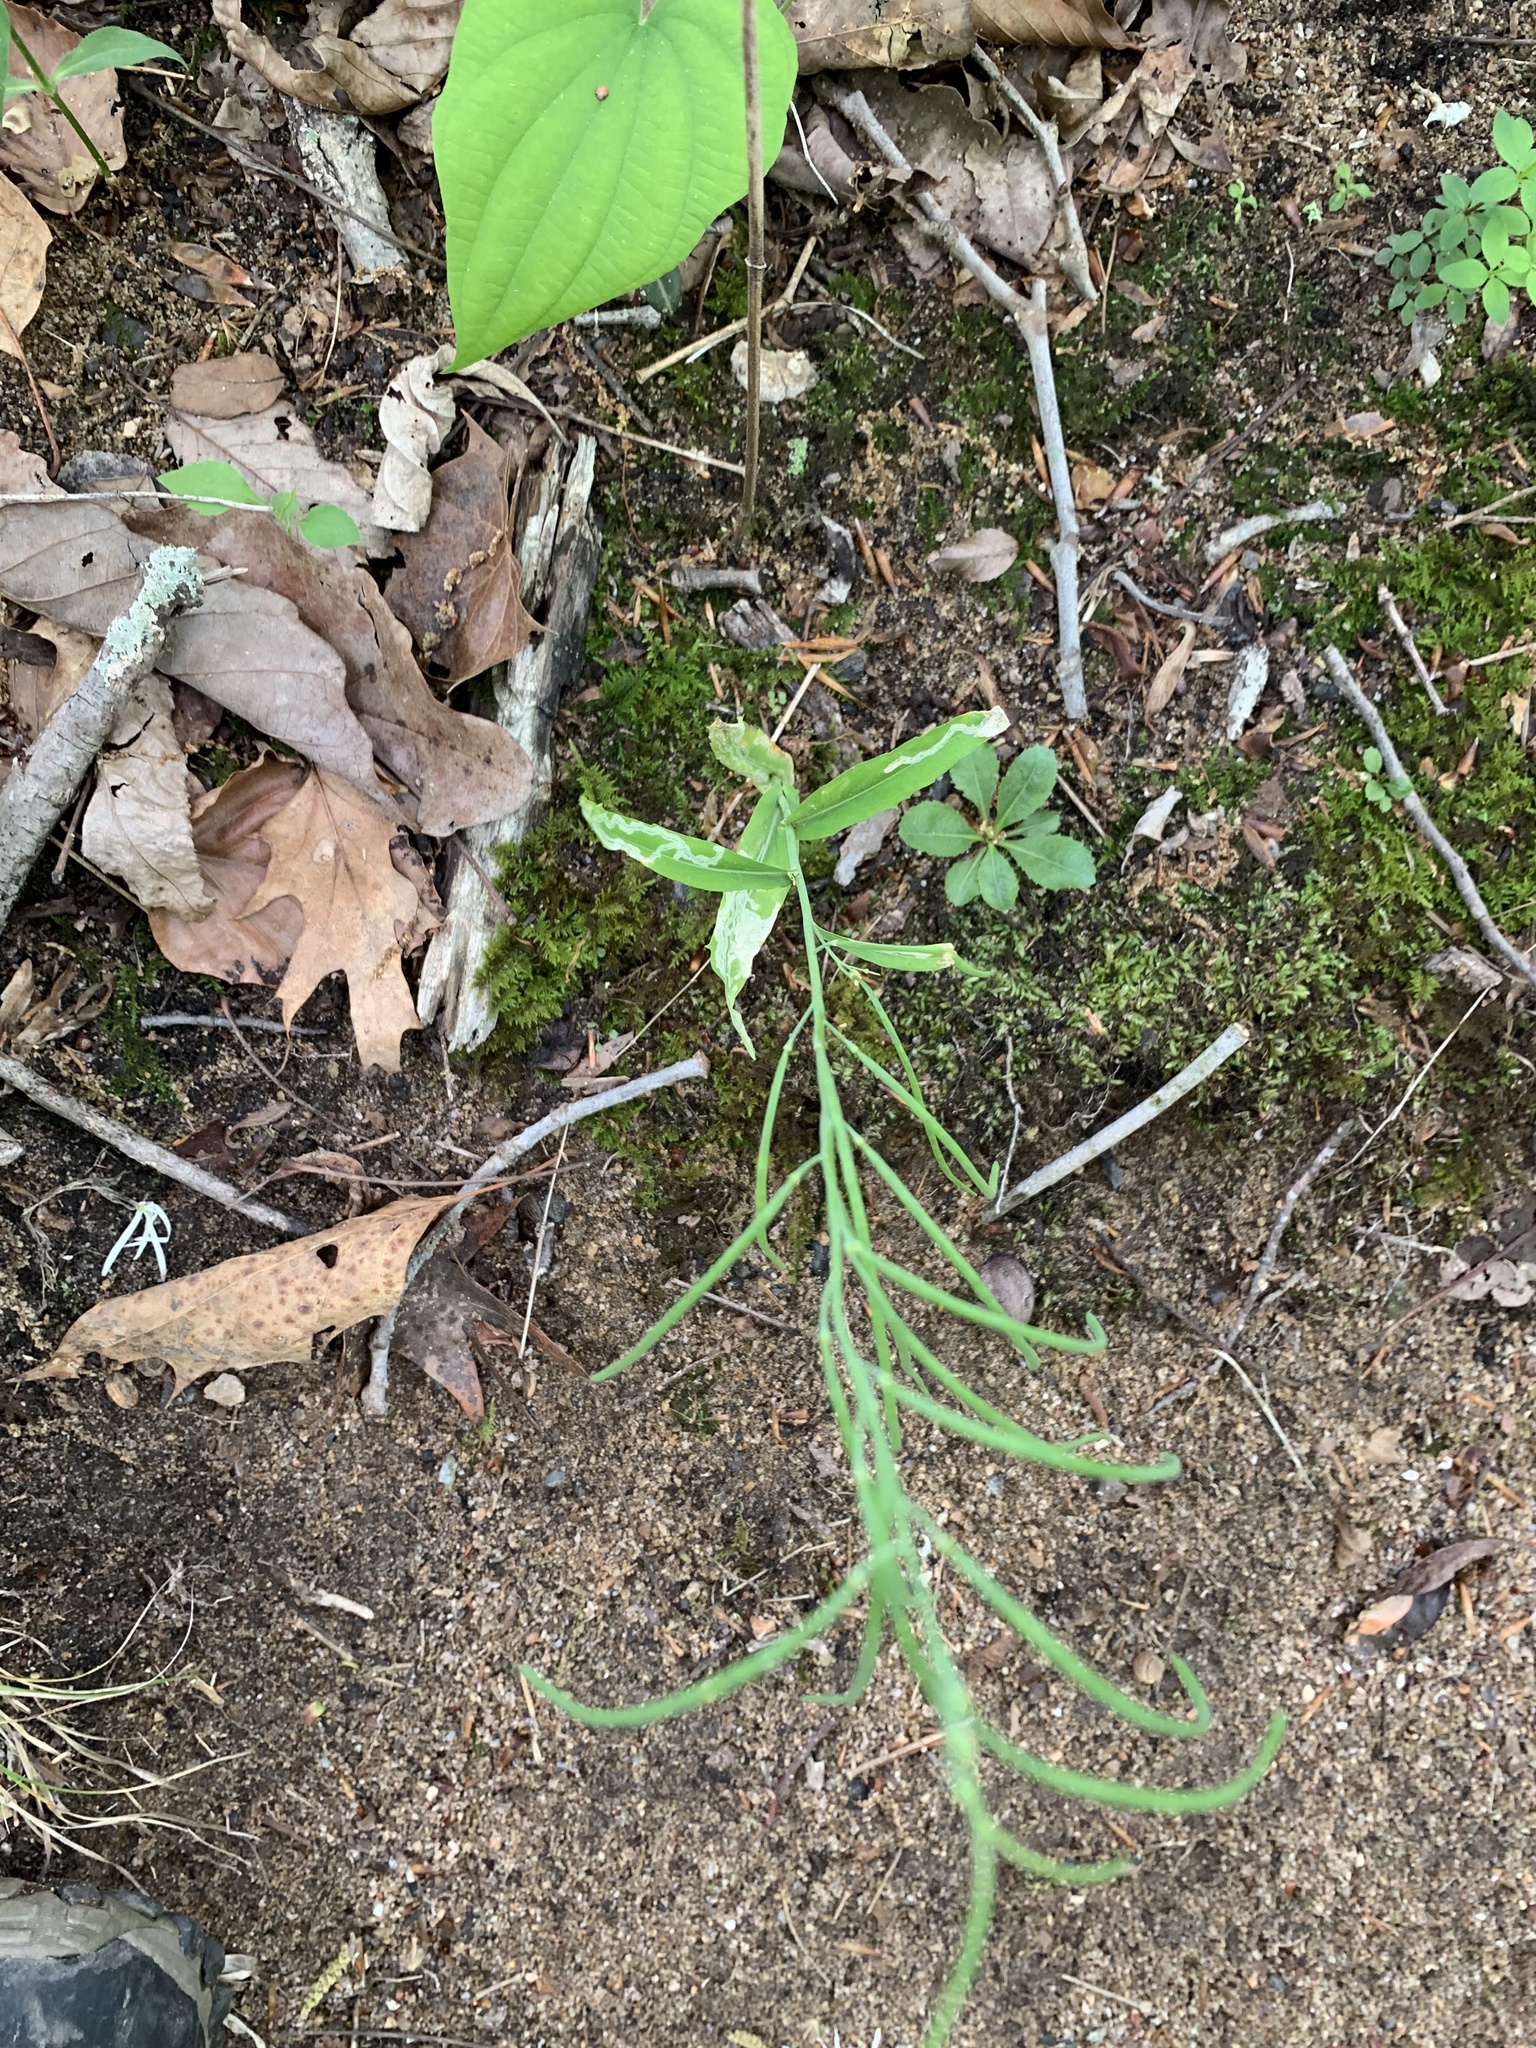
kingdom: Plantae
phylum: Tracheophyta
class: Magnoliopsida
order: Brassicales
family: Brassicaceae
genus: Borodinia
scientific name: Borodinia laevigata
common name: Smooth rockcress
